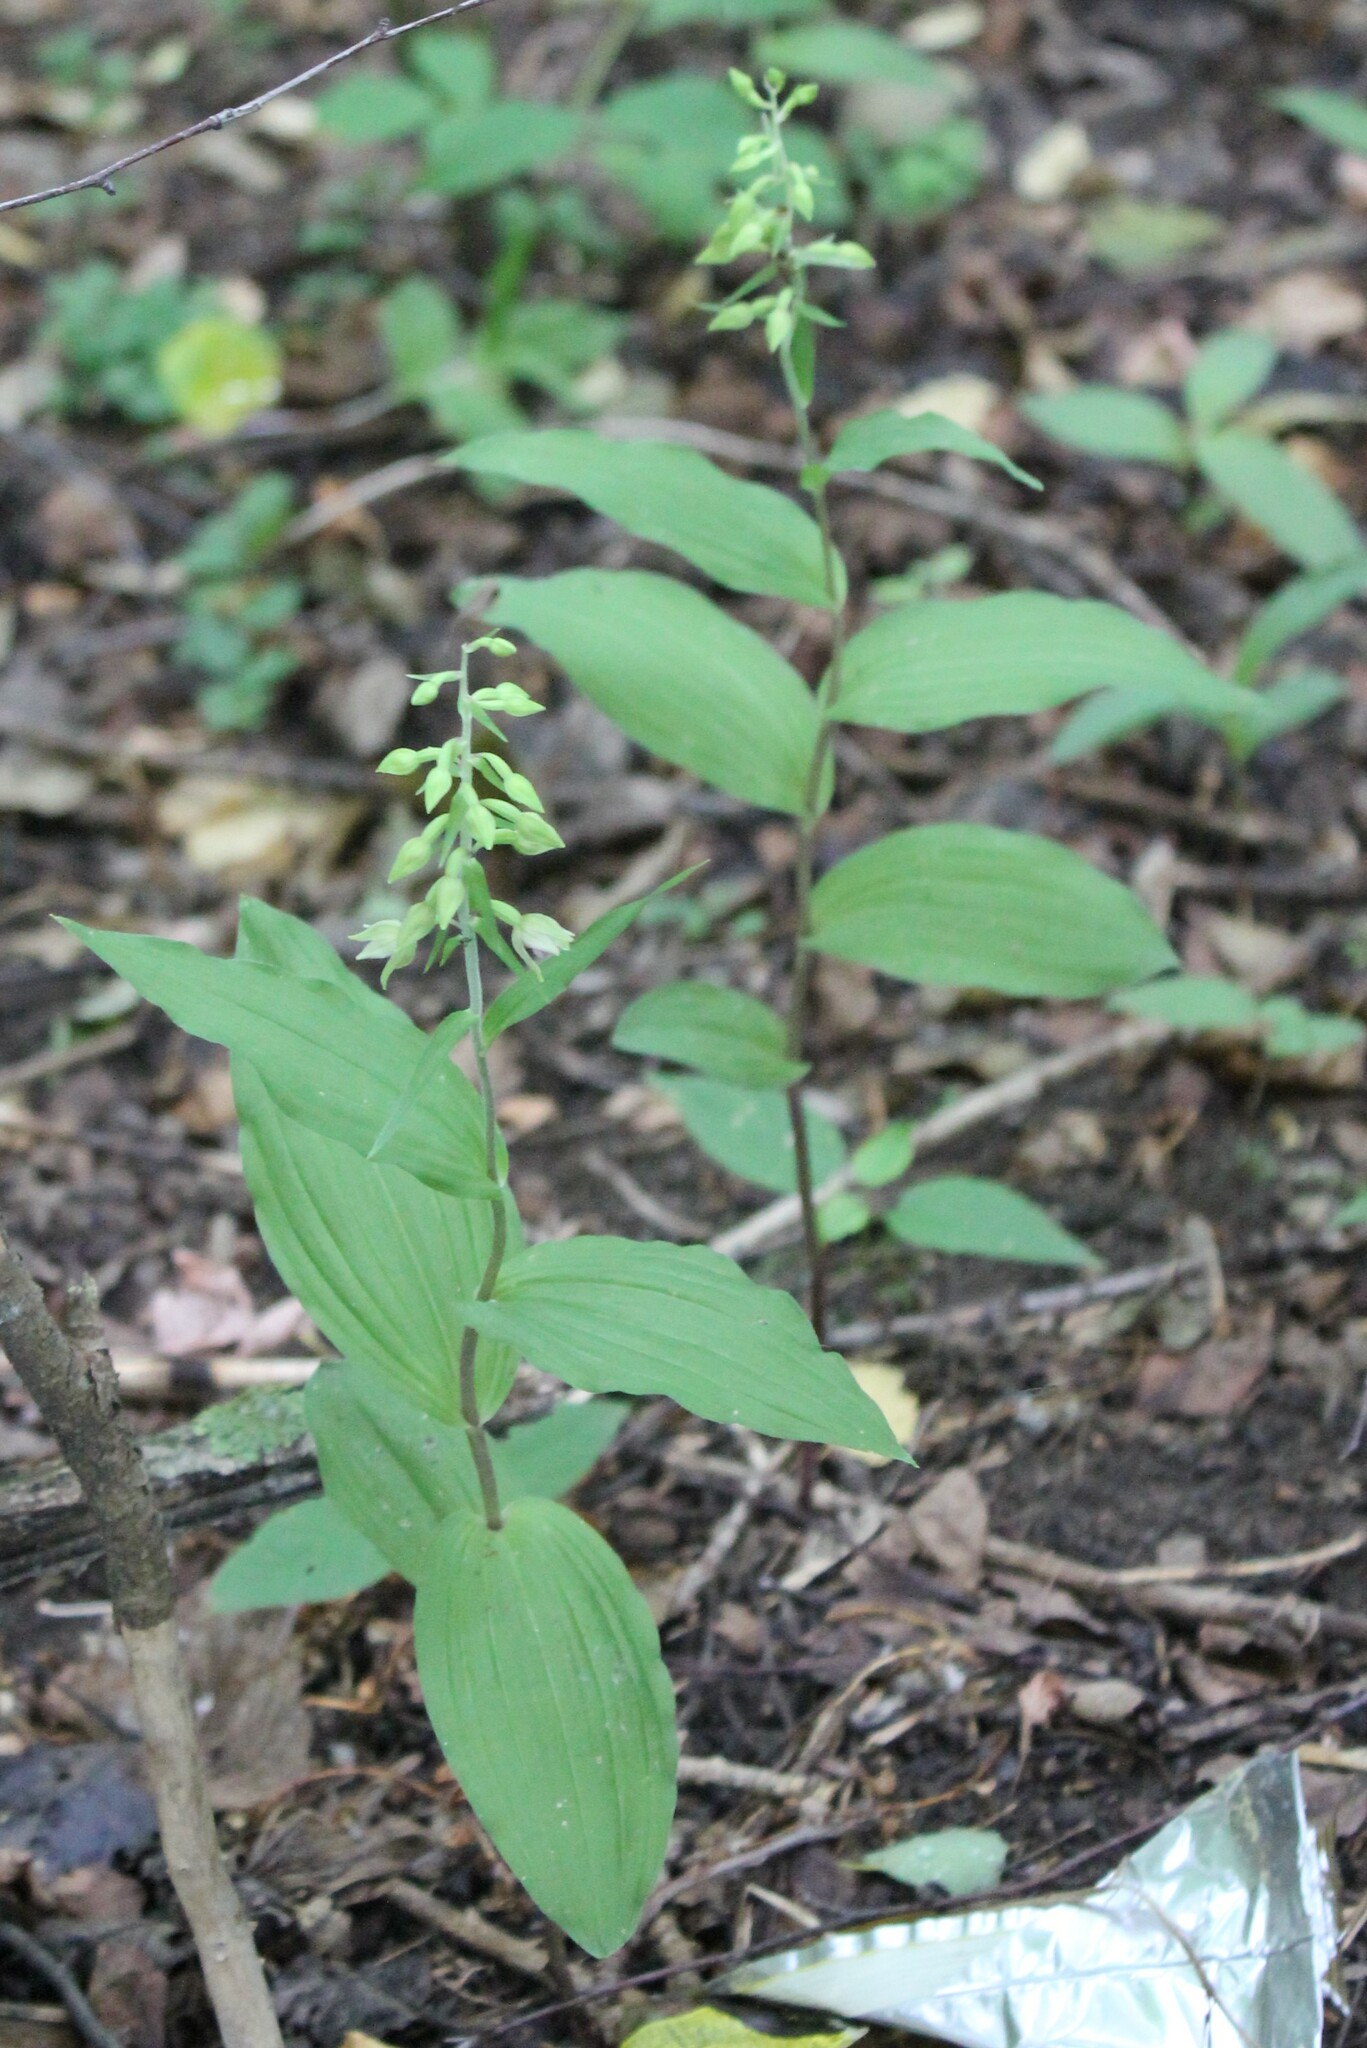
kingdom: Plantae
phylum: Tracheophyta
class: Liliopsida
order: Asparagales
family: Orchidaceae
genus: Epipactis
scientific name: Epipactis helleborine
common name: Broad-leaved helleborine
